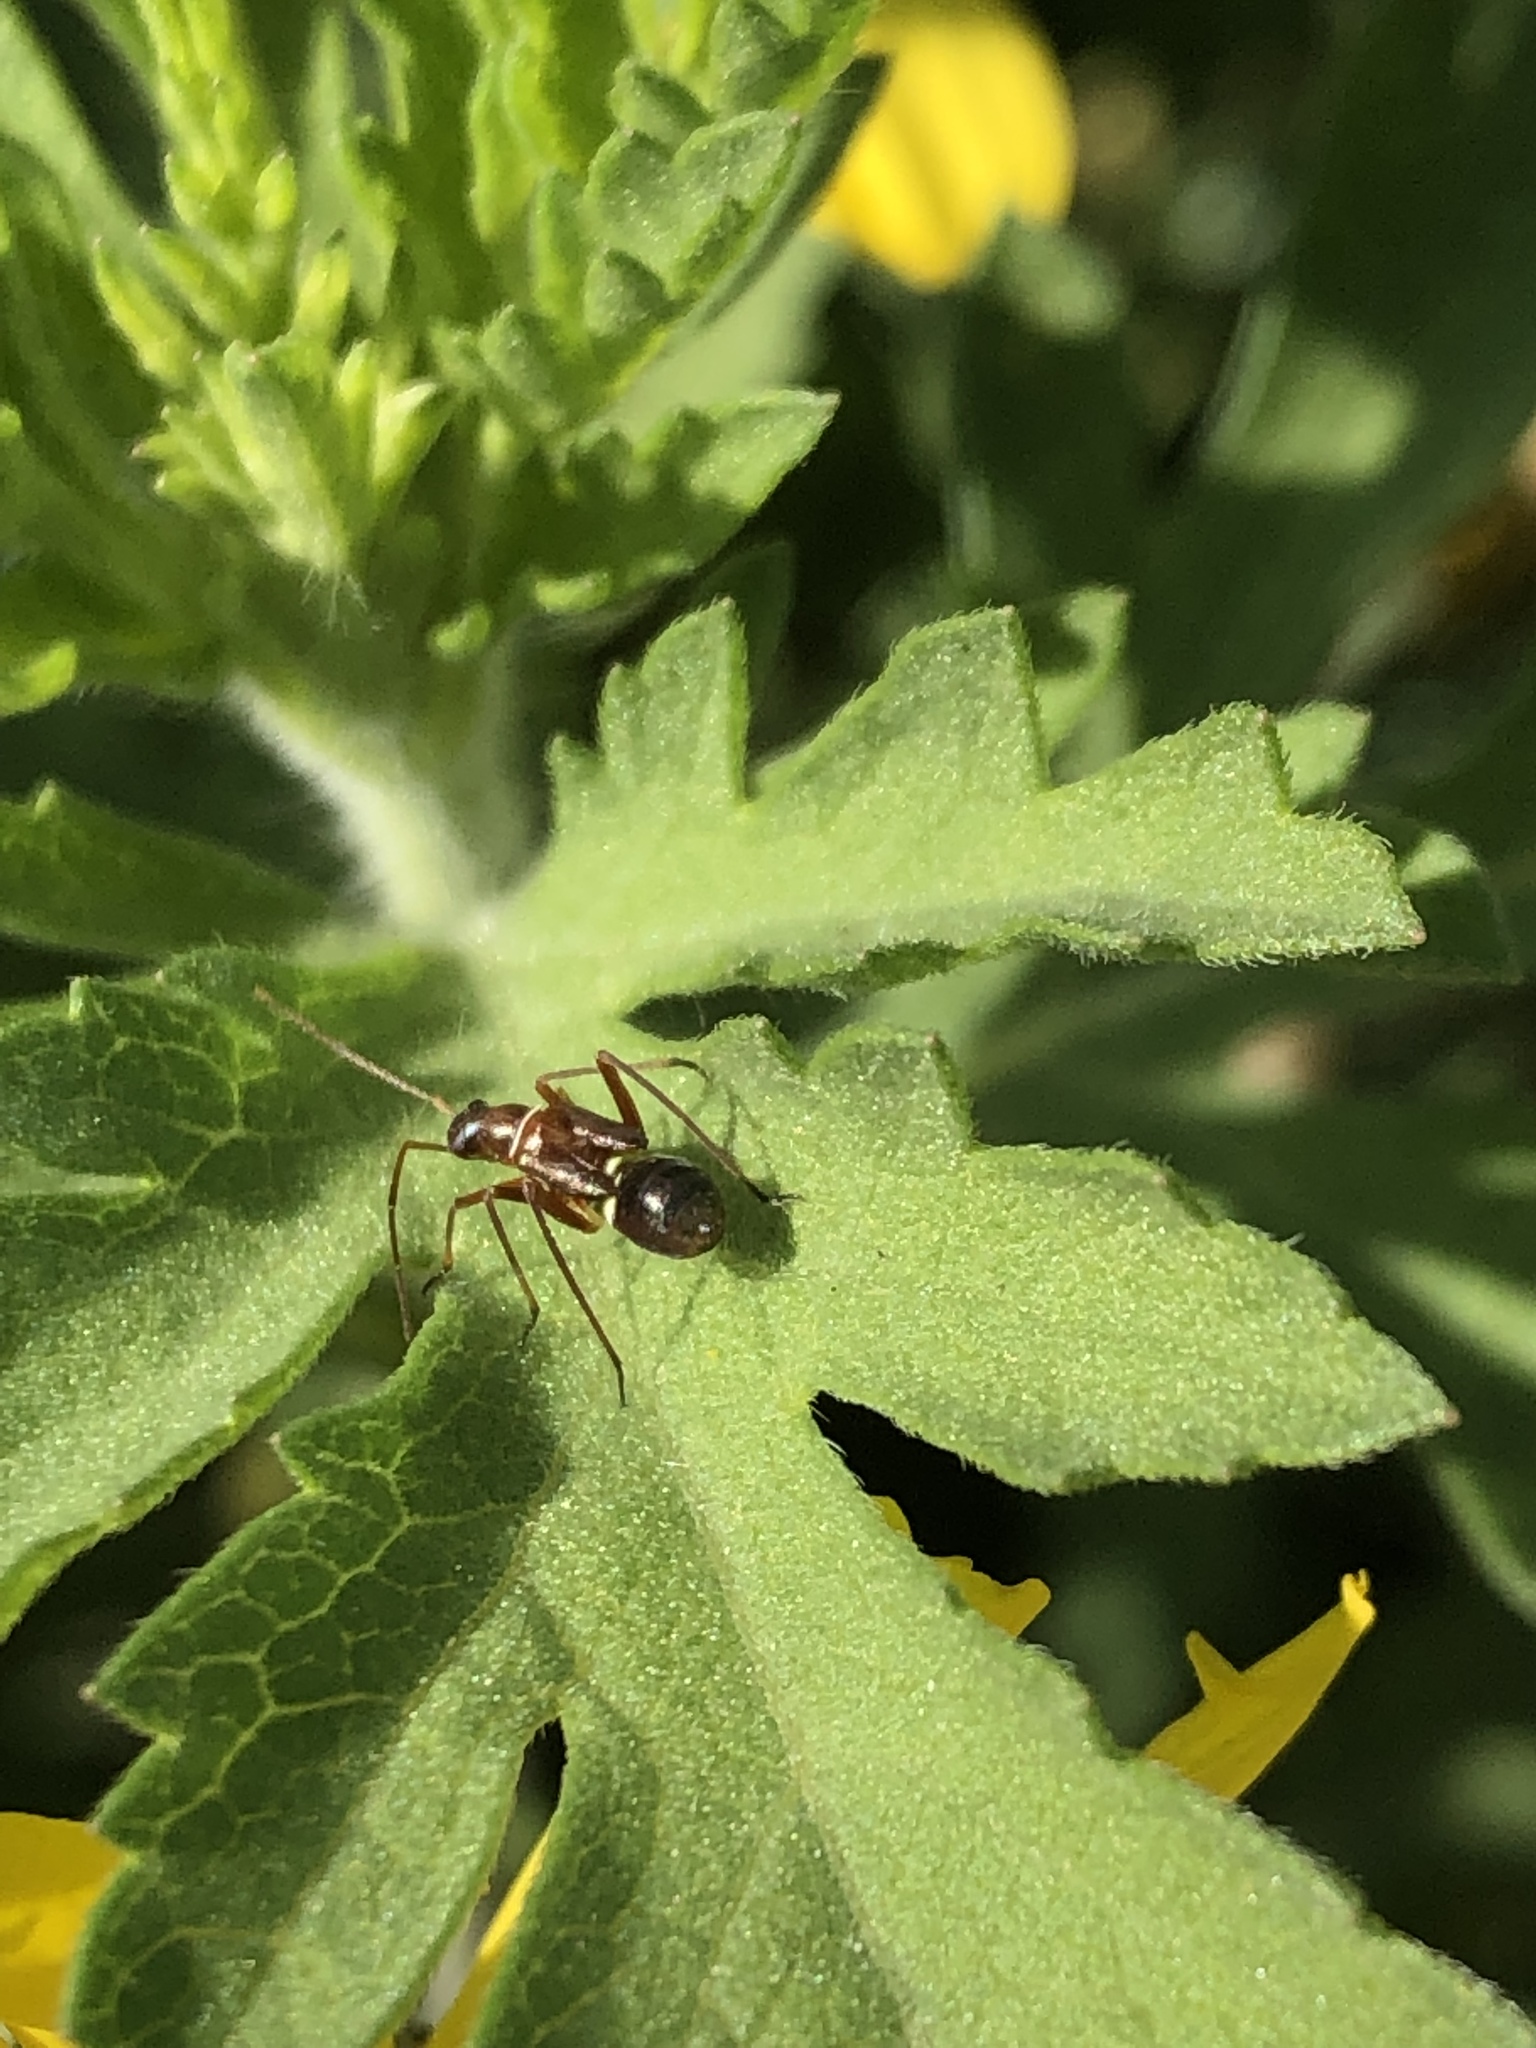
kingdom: Animalia
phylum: Arthropoda
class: Insecta
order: Hemiptera
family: Miridae
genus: Closterocoris
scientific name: Closterocoris amoenus
